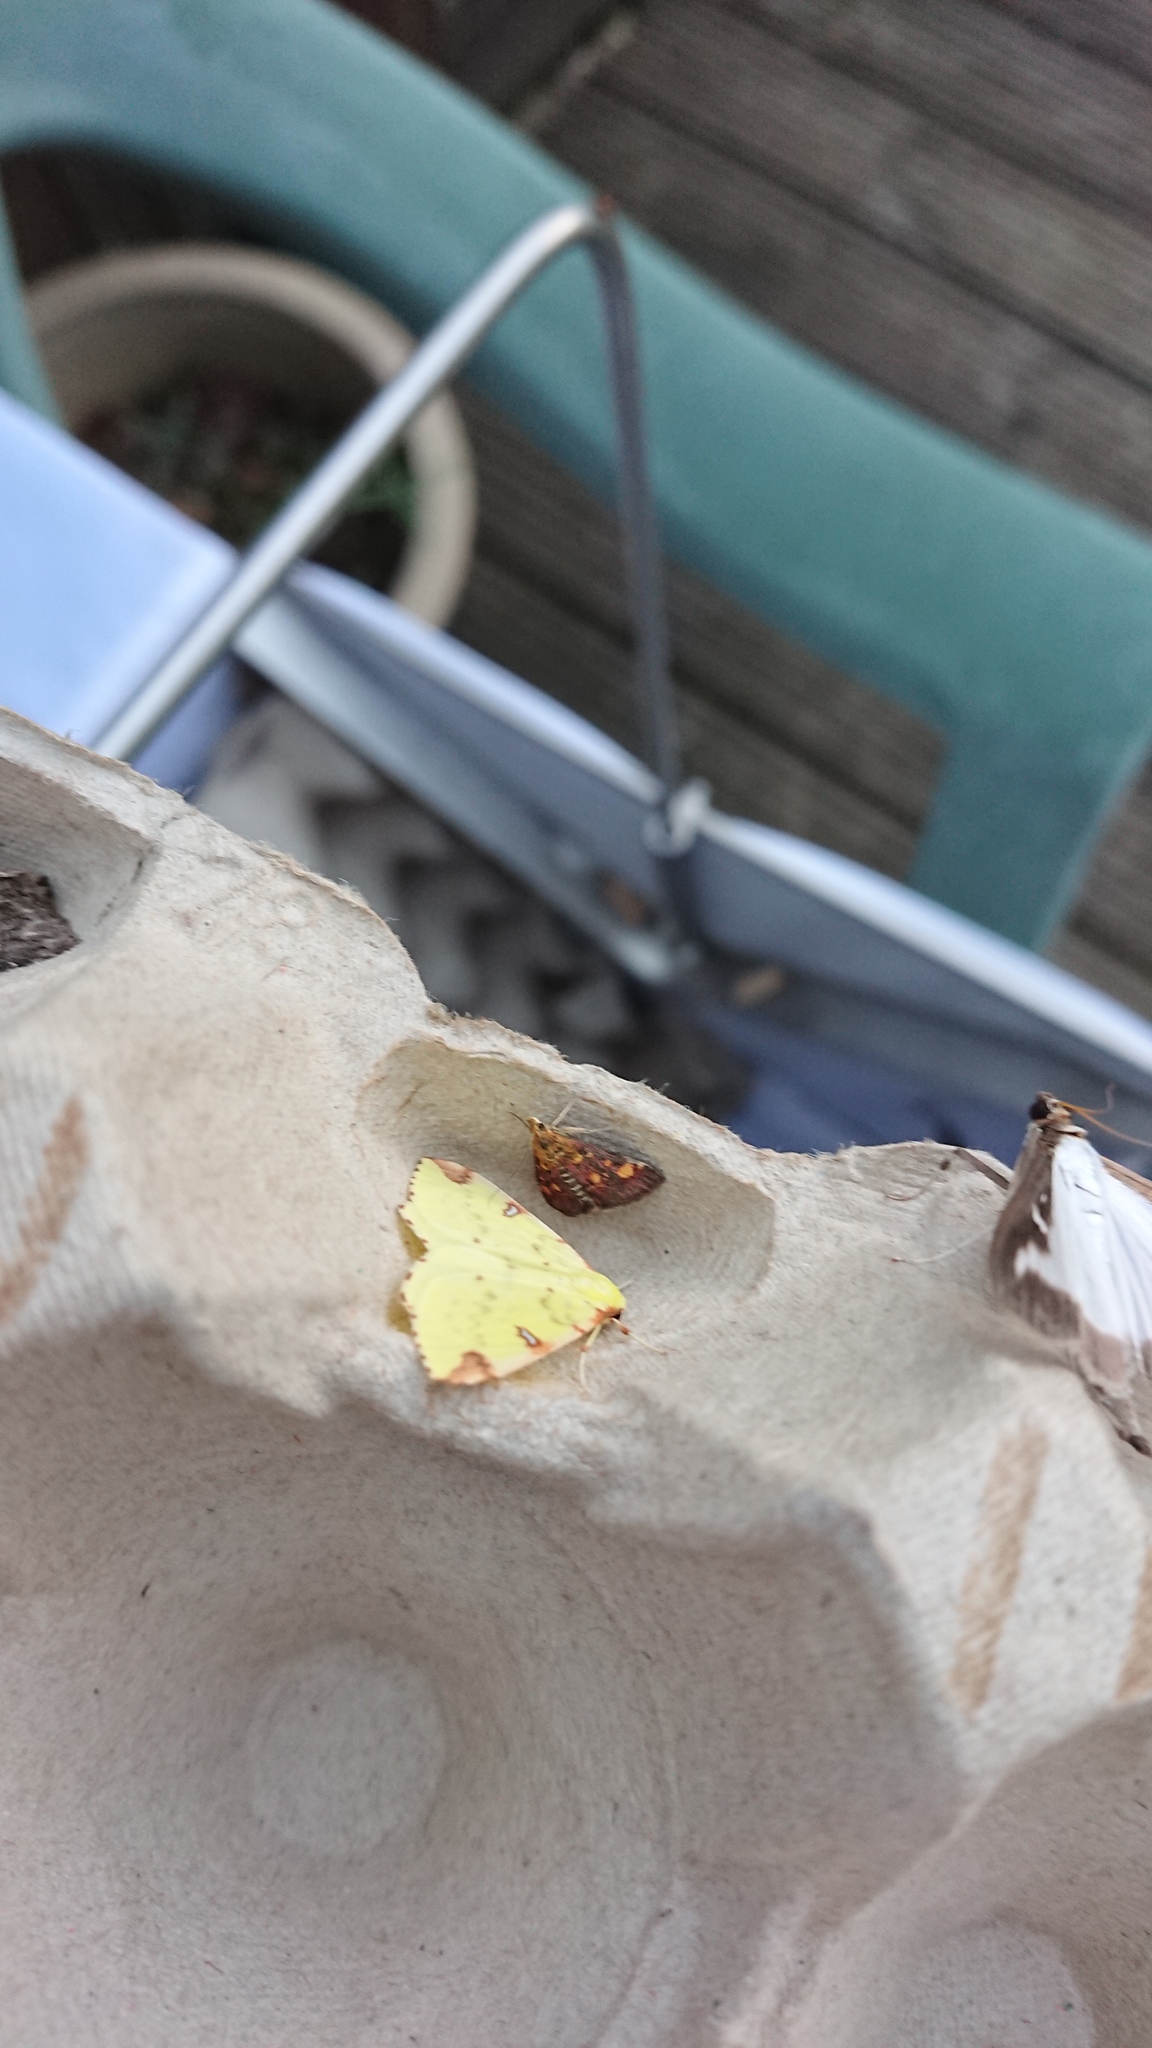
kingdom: Animalia
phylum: Arthropoda
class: Insecta
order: Lepidoptera
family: Crambidae
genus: Pyrausta
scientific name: Pyrausta aurata
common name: Small purple & gold
